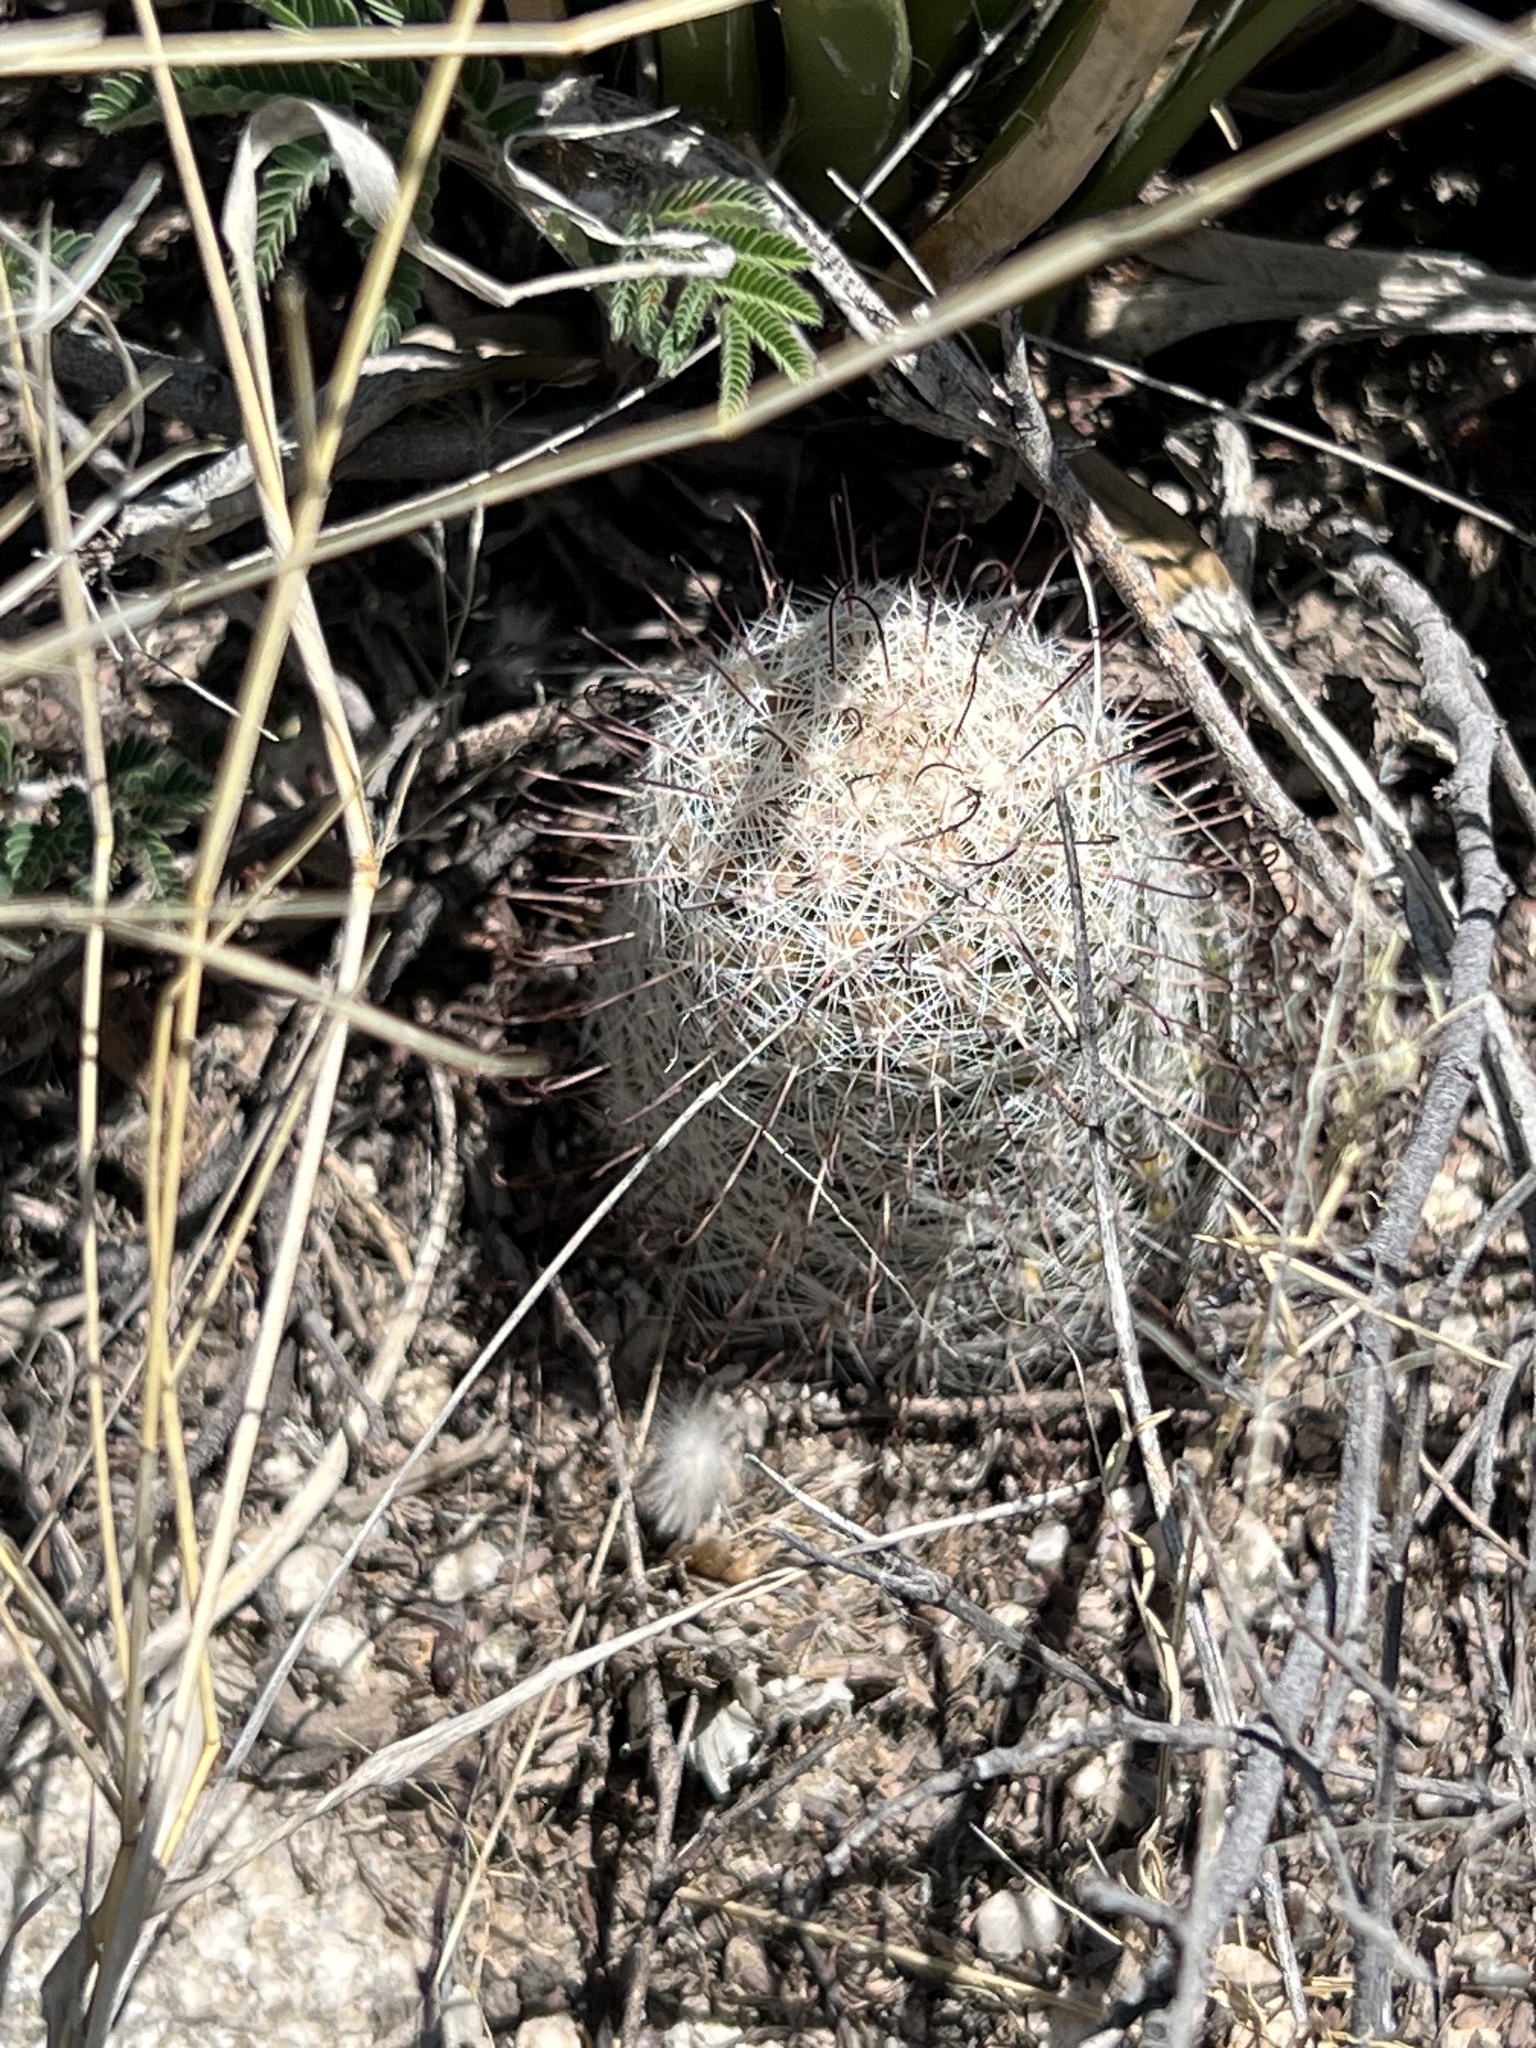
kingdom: Plantae
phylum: Tracheophyta
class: Magnoliopsida
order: Caryophyllales
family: Cactaceae
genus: Cochemiea
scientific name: Cochemiea grahamii
